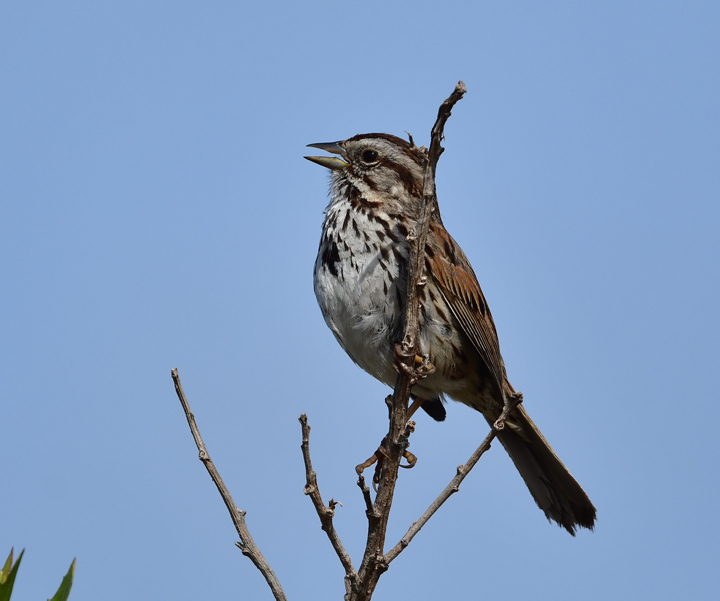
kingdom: Animalia
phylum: Chordata
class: Aves
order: Passeriformes
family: Passerellidae
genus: Melospiza
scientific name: Melospiza melodia
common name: Song sparrow
